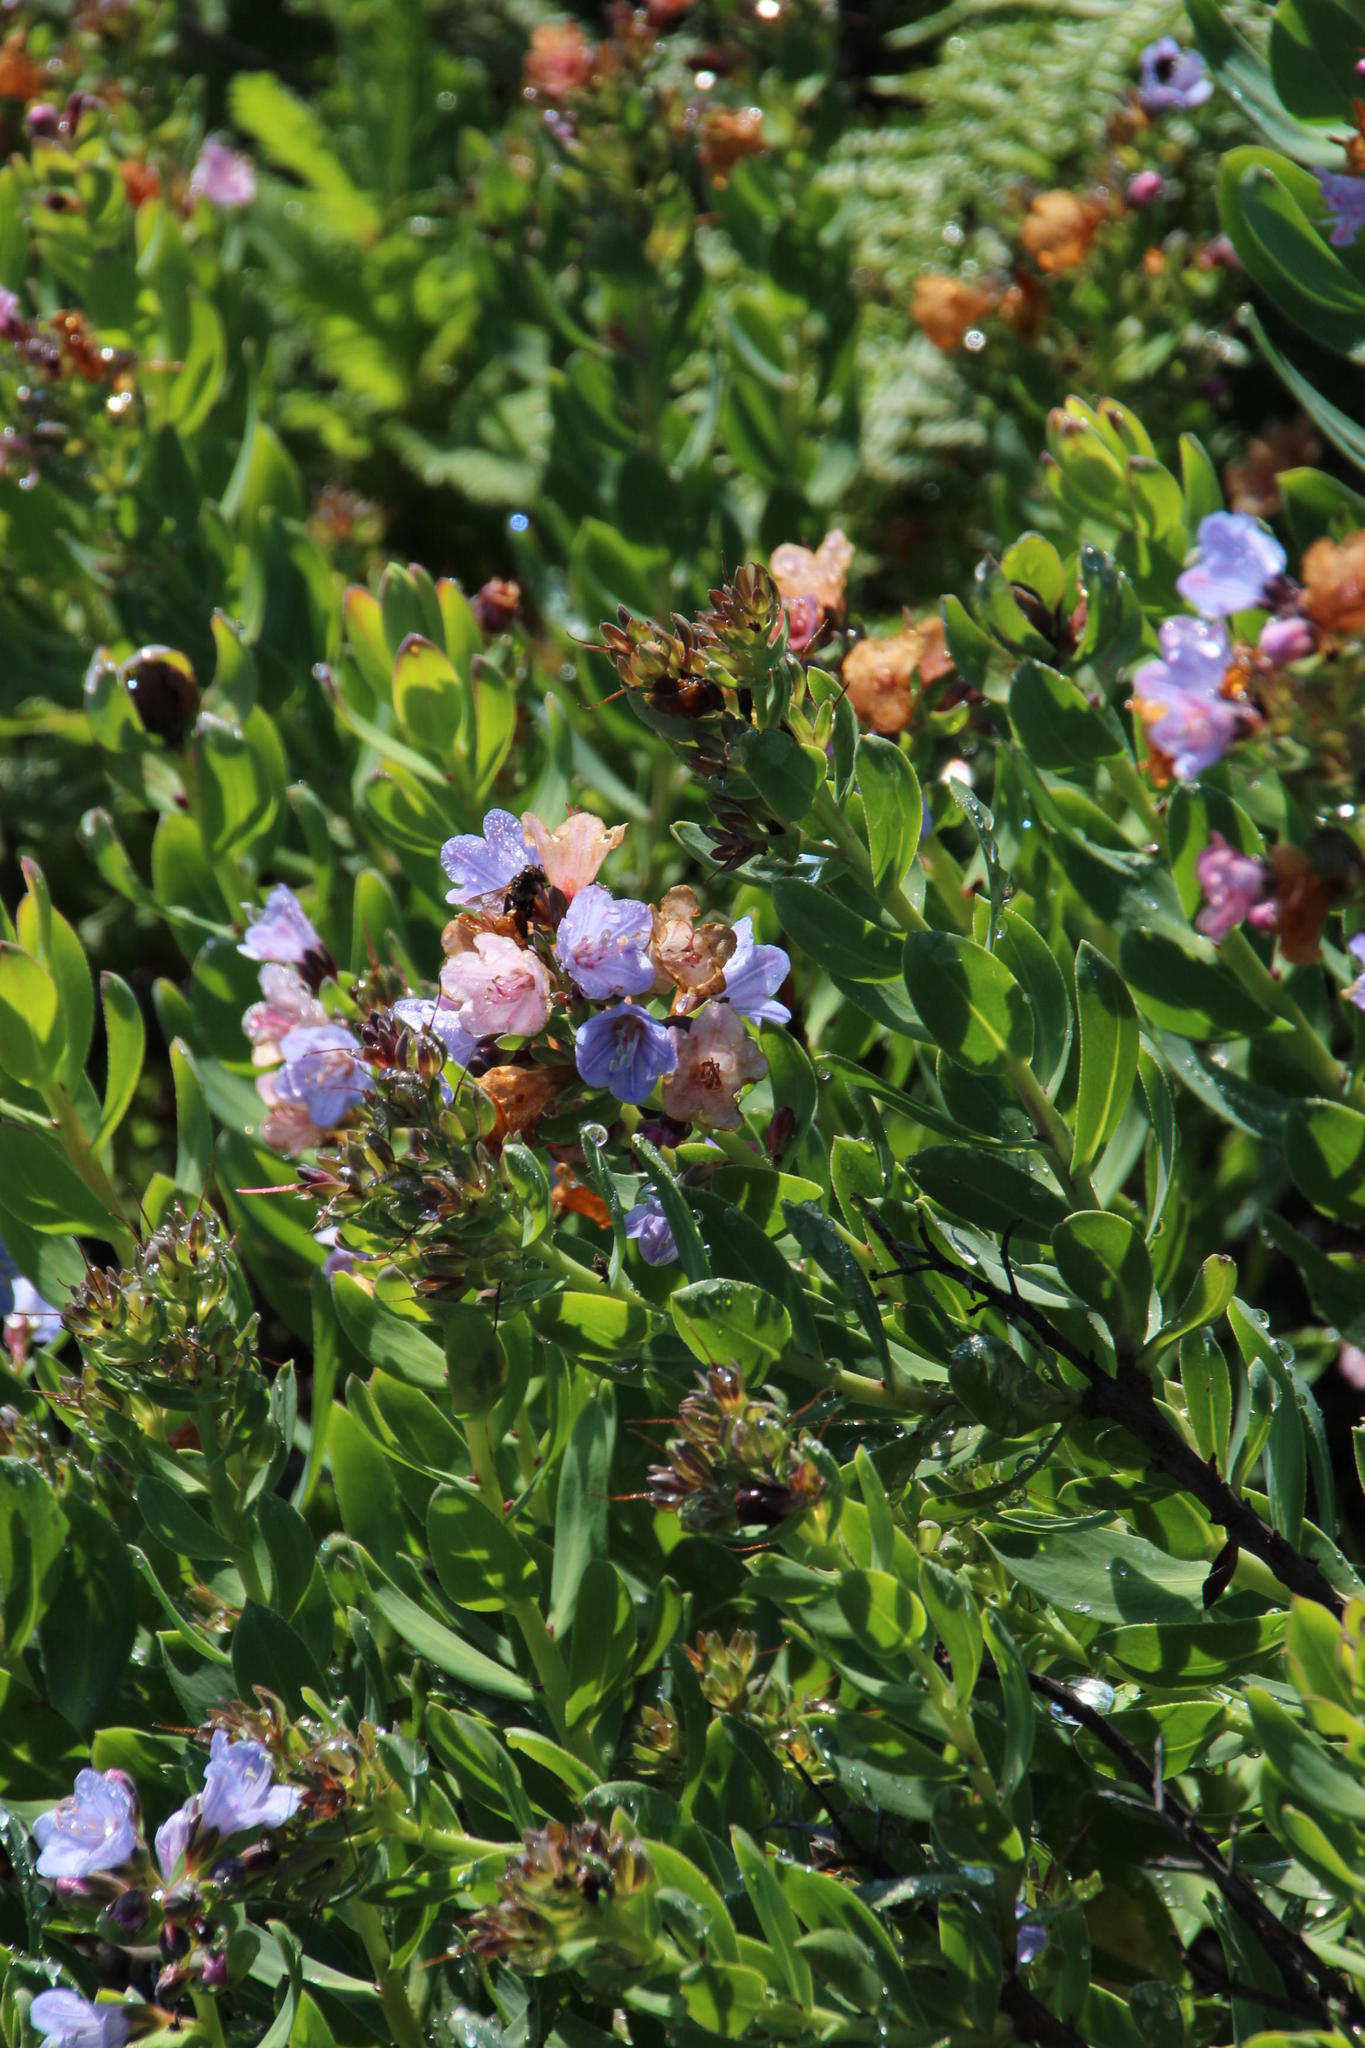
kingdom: Plantae
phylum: Tracheophyta
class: Magnoliopsida
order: Boraginales
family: Boraginaceae
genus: Lobostemon
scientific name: Lobostemon glaucophyllus
